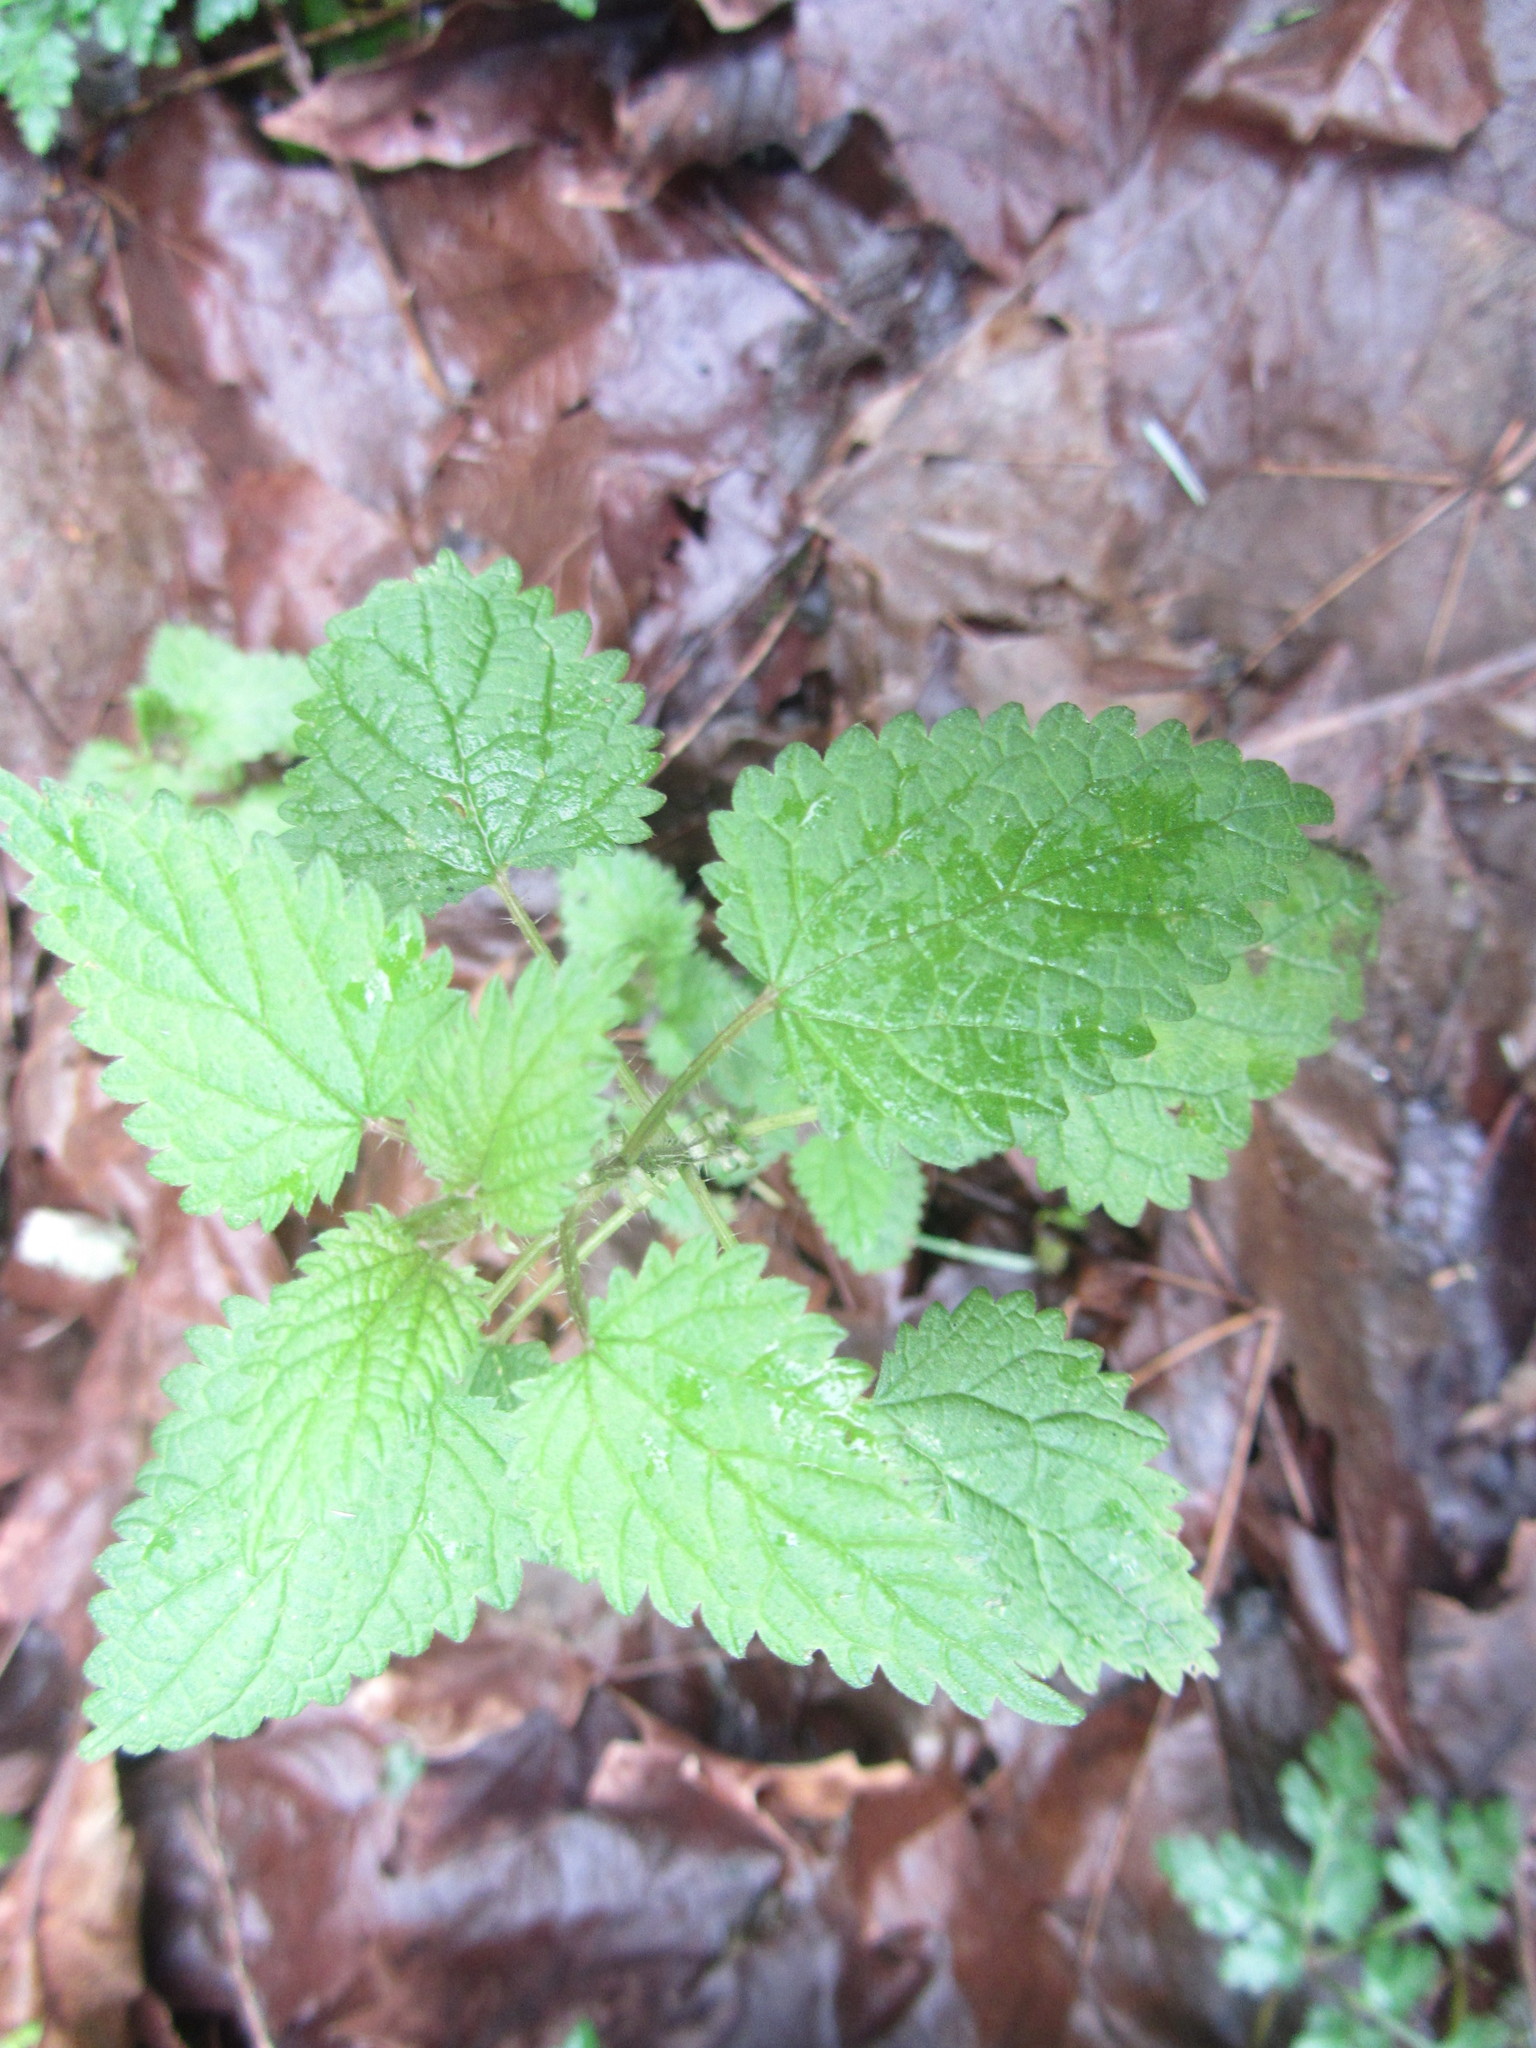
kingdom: Plantae
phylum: Tracheophyta
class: Magnoliopsida
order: Rosales
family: Urticaceae
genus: Urtica
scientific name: Urtica dioica
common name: Common nettle
